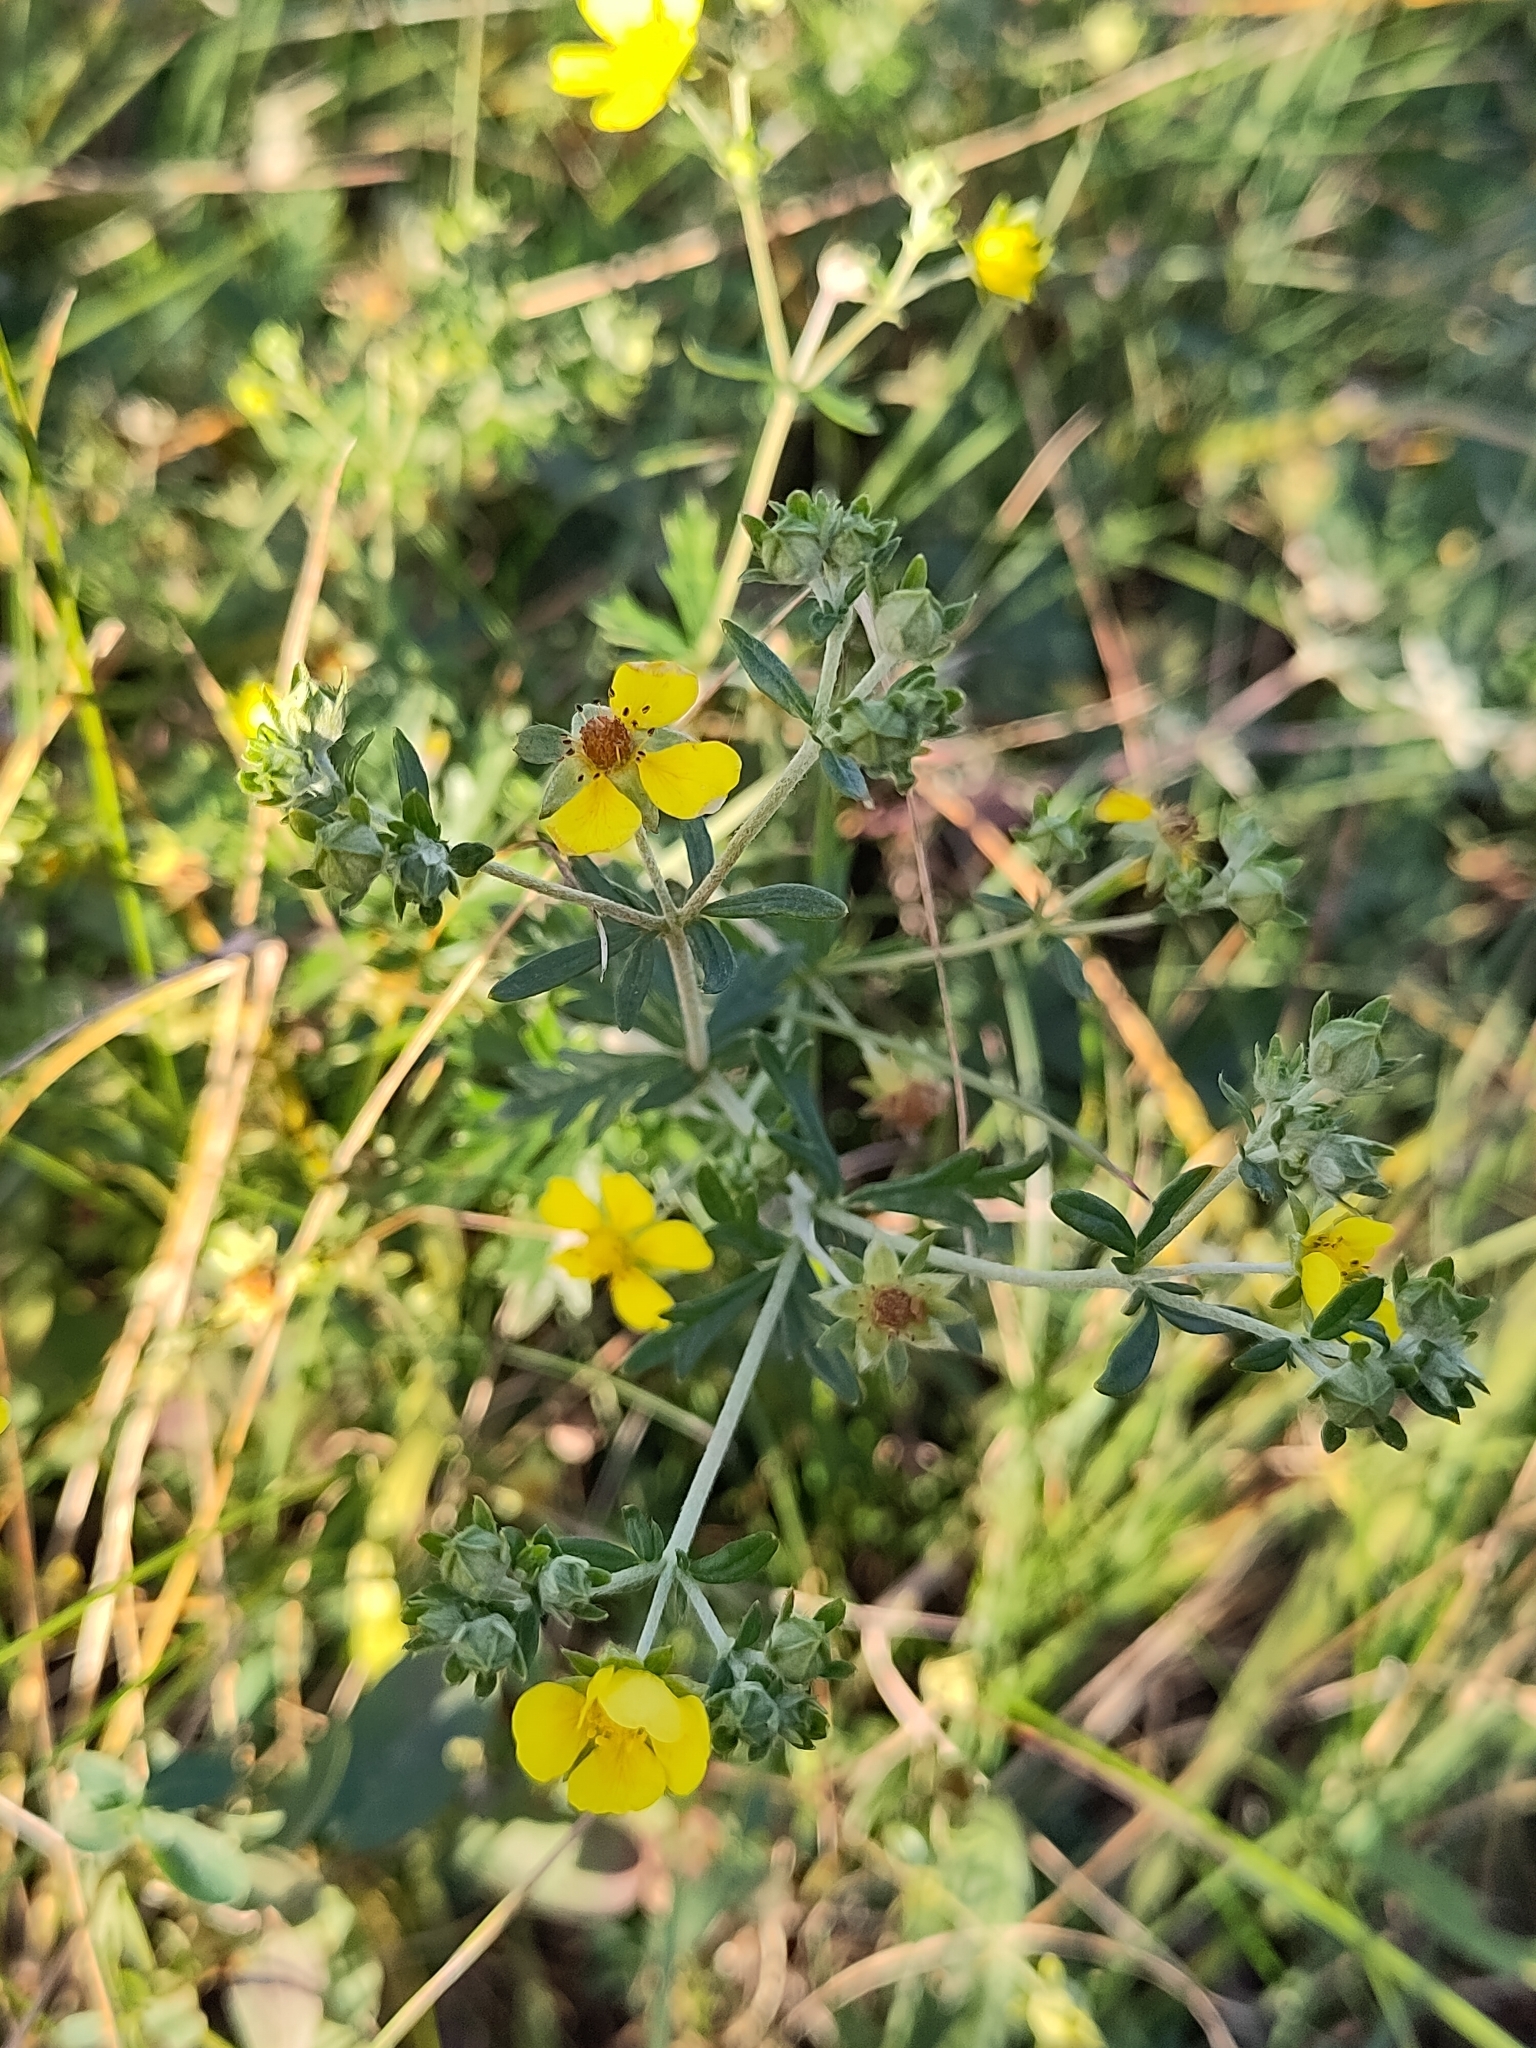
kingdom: Plantae
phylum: Tracheophyta
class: Magnoliopsida
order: Rosales
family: Rosaceae
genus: Potentilla
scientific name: Potentilla argentea
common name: Hoary cinquefoil
